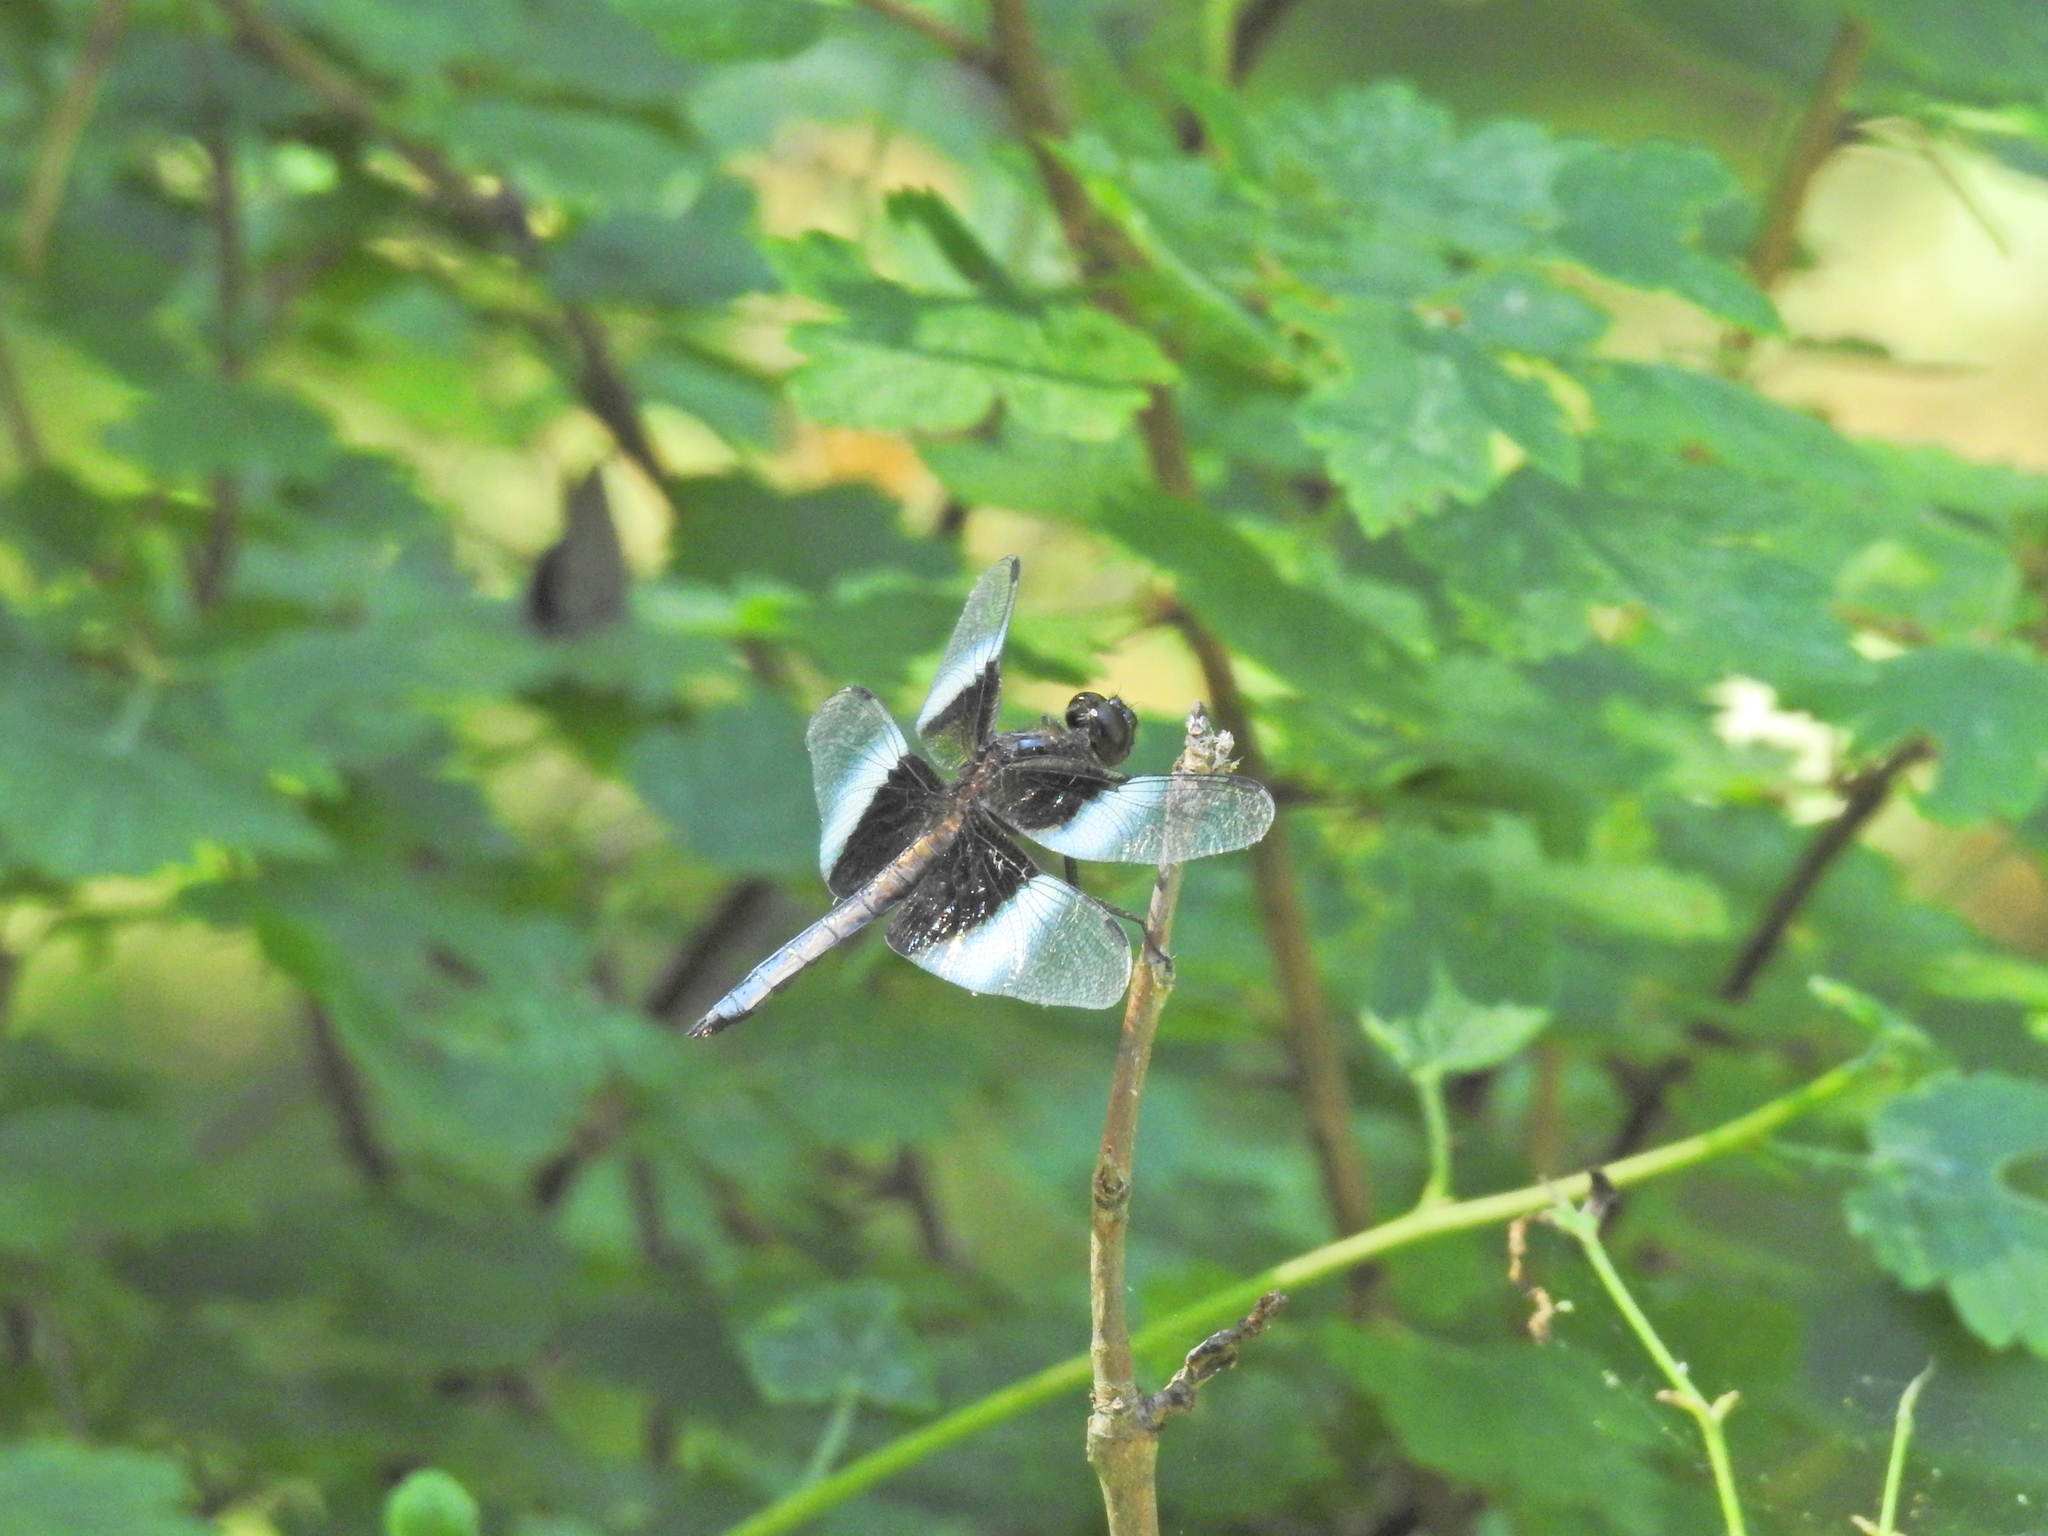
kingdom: Animalia
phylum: Arthropoda
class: Insecta
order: Odonata
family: Libellulidae
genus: Libellula
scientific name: Libellula luctuosa
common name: Widow skimmer
